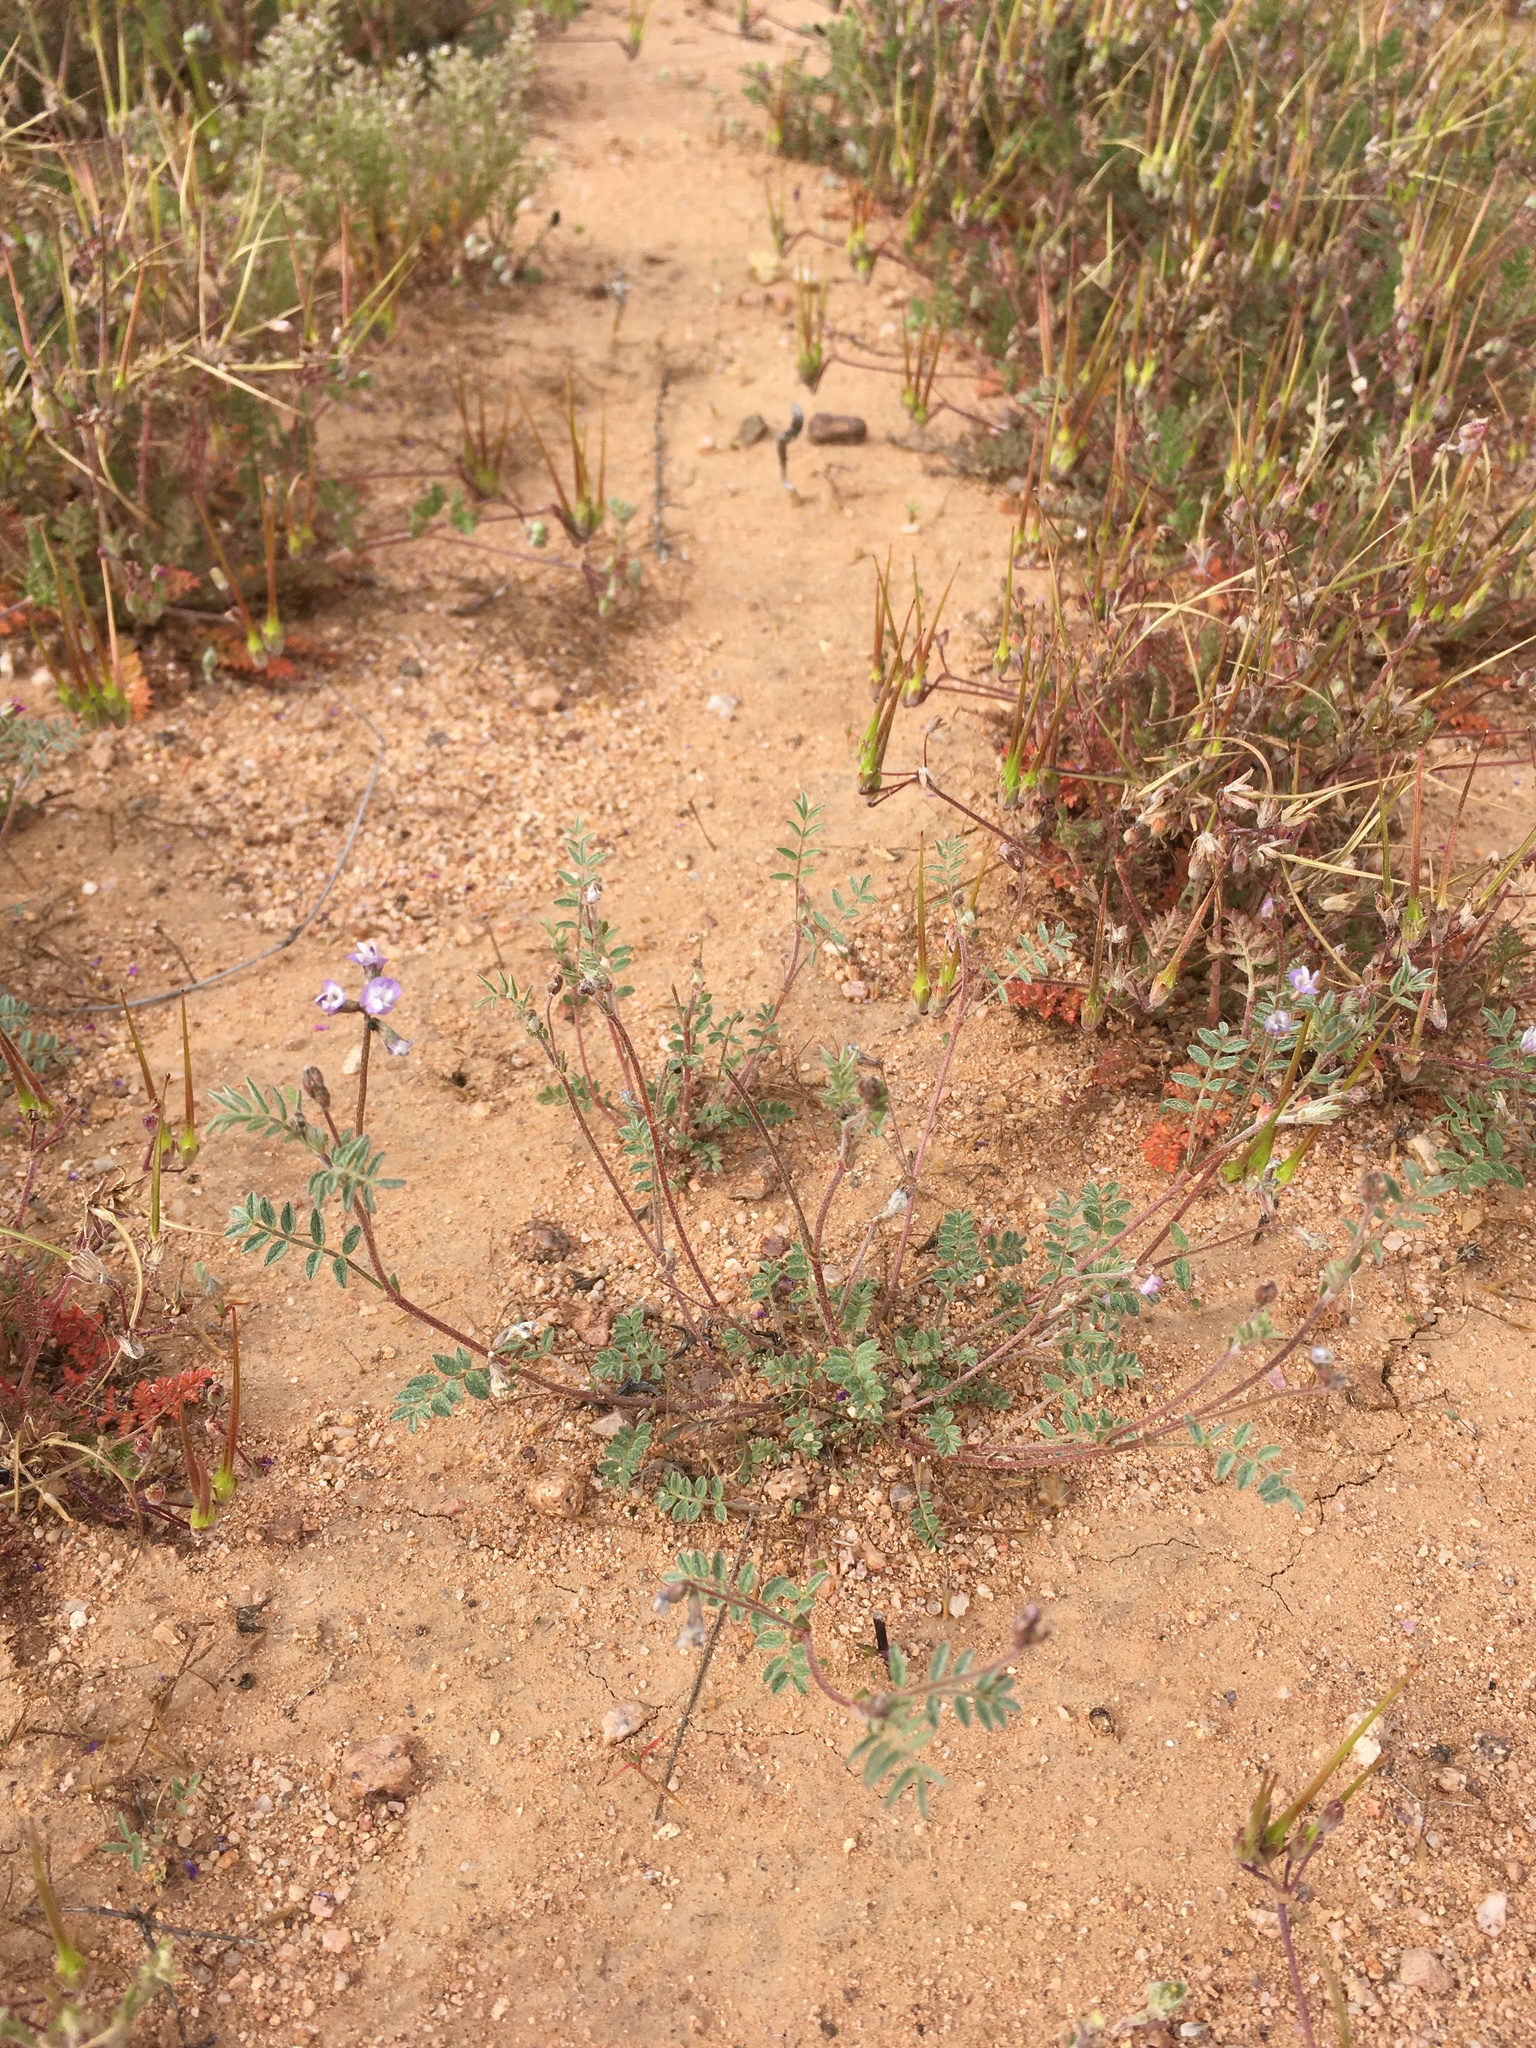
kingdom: Plantae
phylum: Tracheophyta
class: Magnoliopsida
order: Fabales
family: Fabaceae
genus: Astragalus
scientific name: Astragalus nuttallianus
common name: Smallflowered milkvetch
